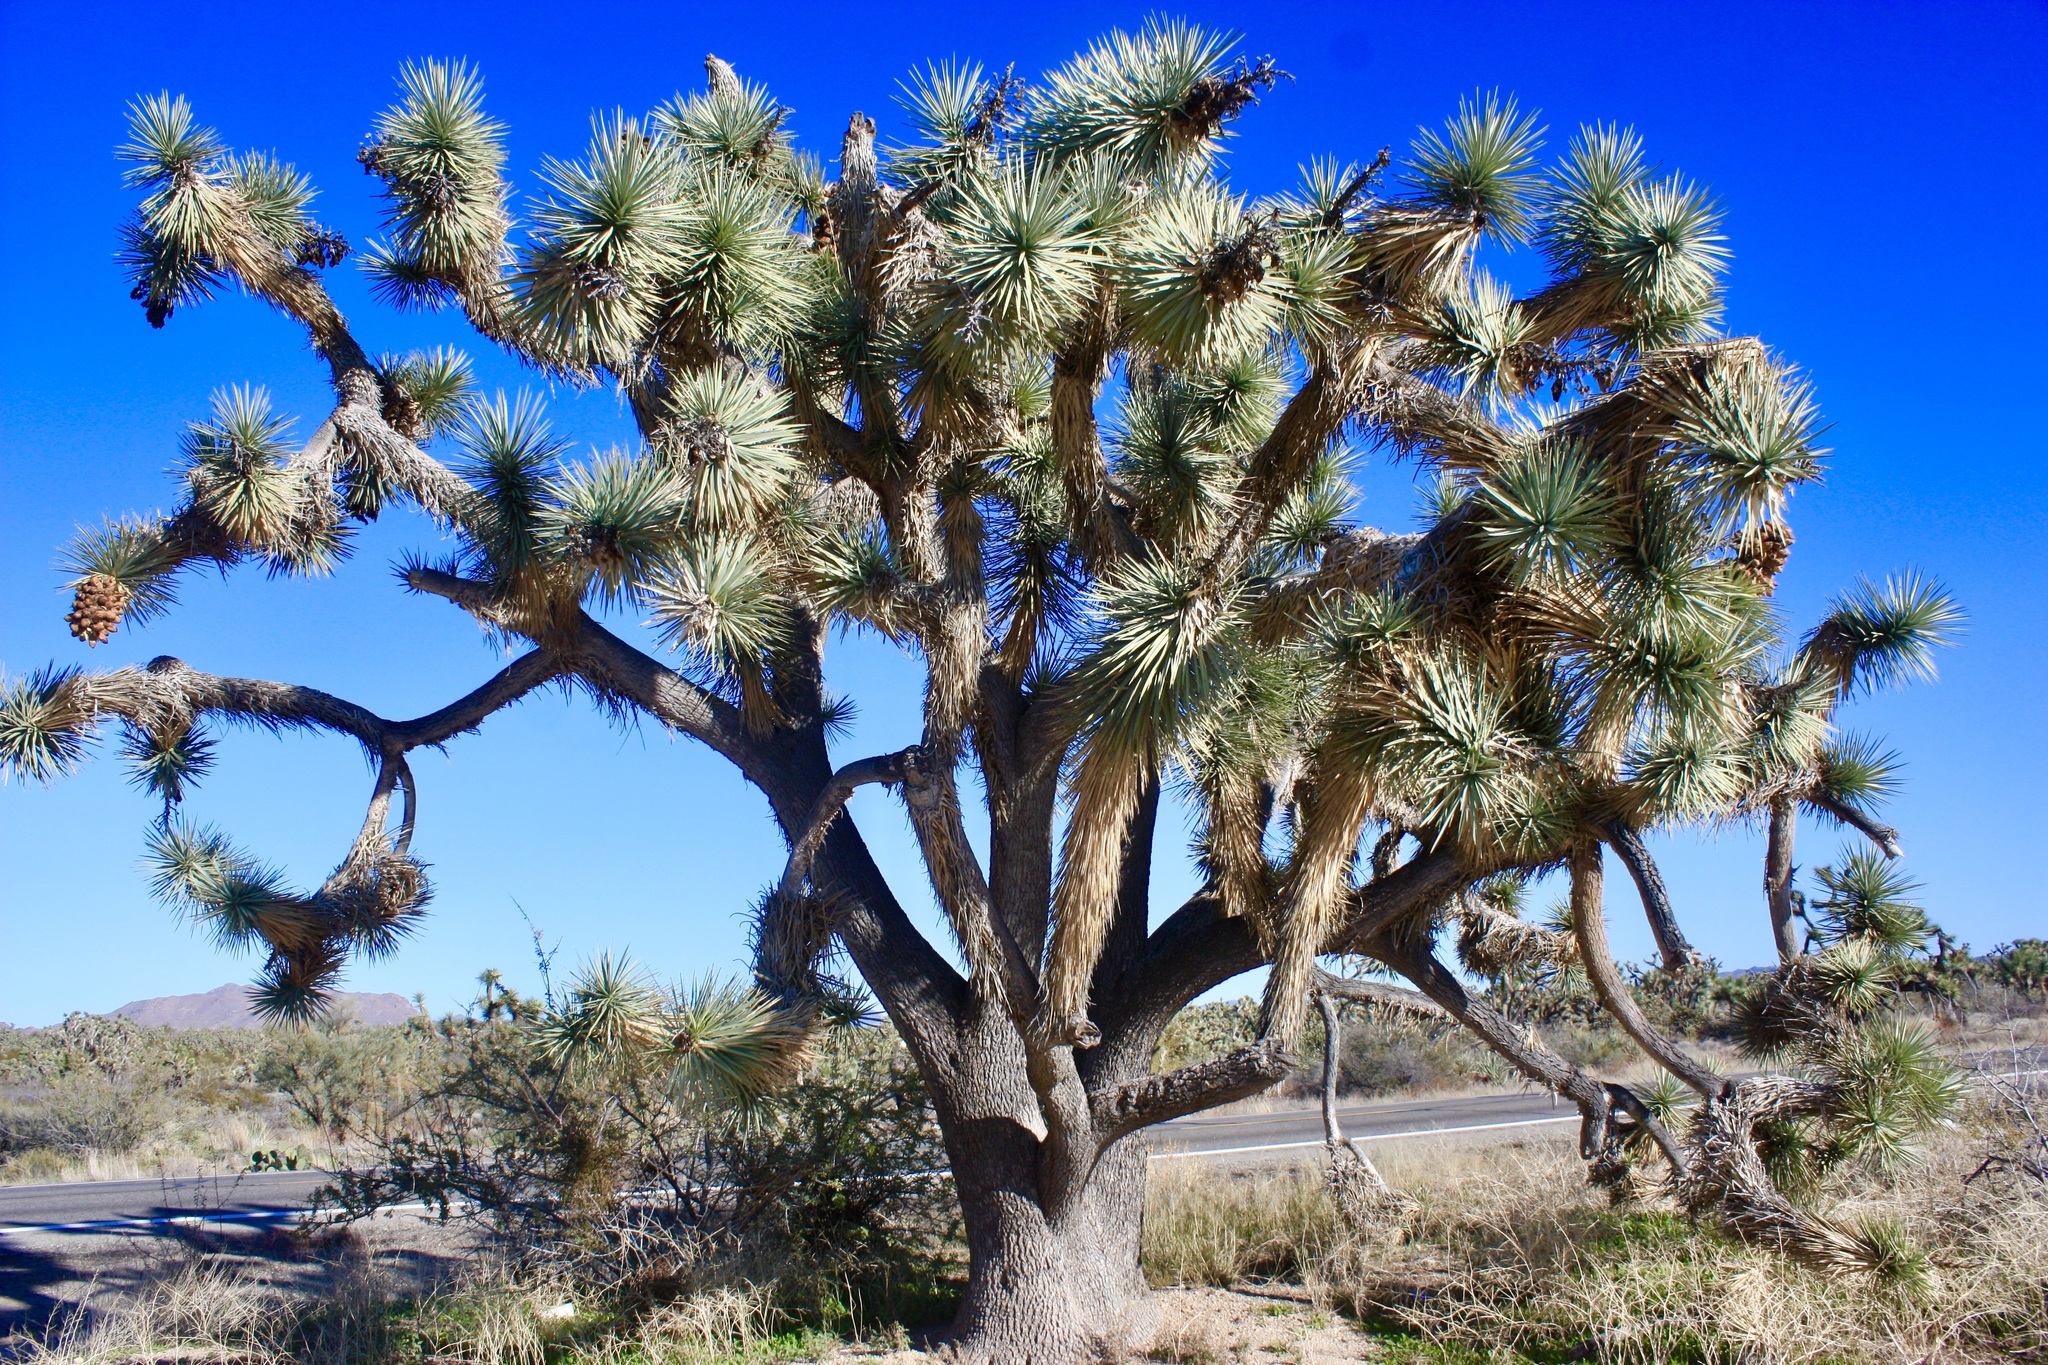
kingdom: Plantae
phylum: Tracheophyta
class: Liliopsida
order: Asparagales
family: Asparagaceae
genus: Yucca
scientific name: Yucca brevifolia
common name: Joshua tree
